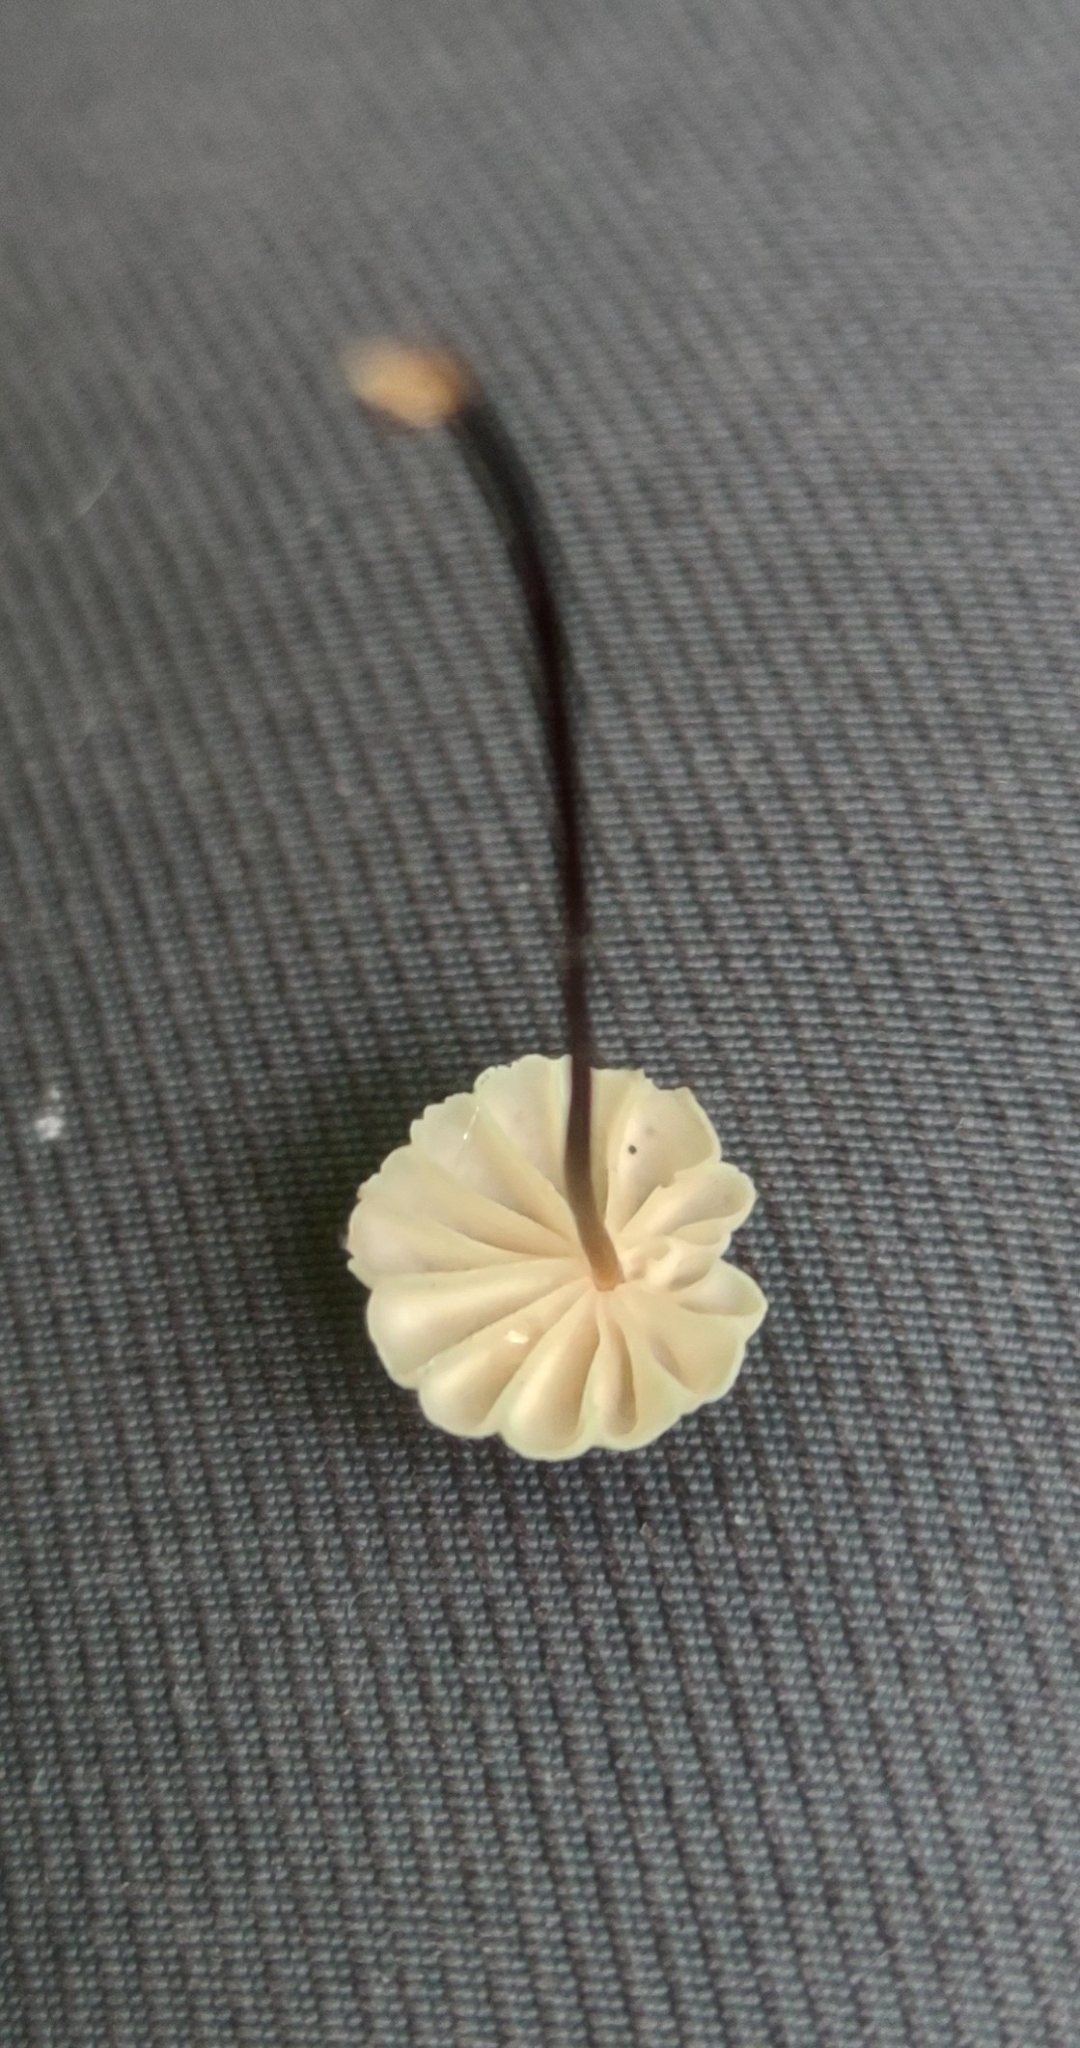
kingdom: Fungi
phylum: Basidiomycota
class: Agaricomycetes
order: Agaricales
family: Marasmiaceae
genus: Marasmius
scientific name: Marasmius rotula
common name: Collared parachute
